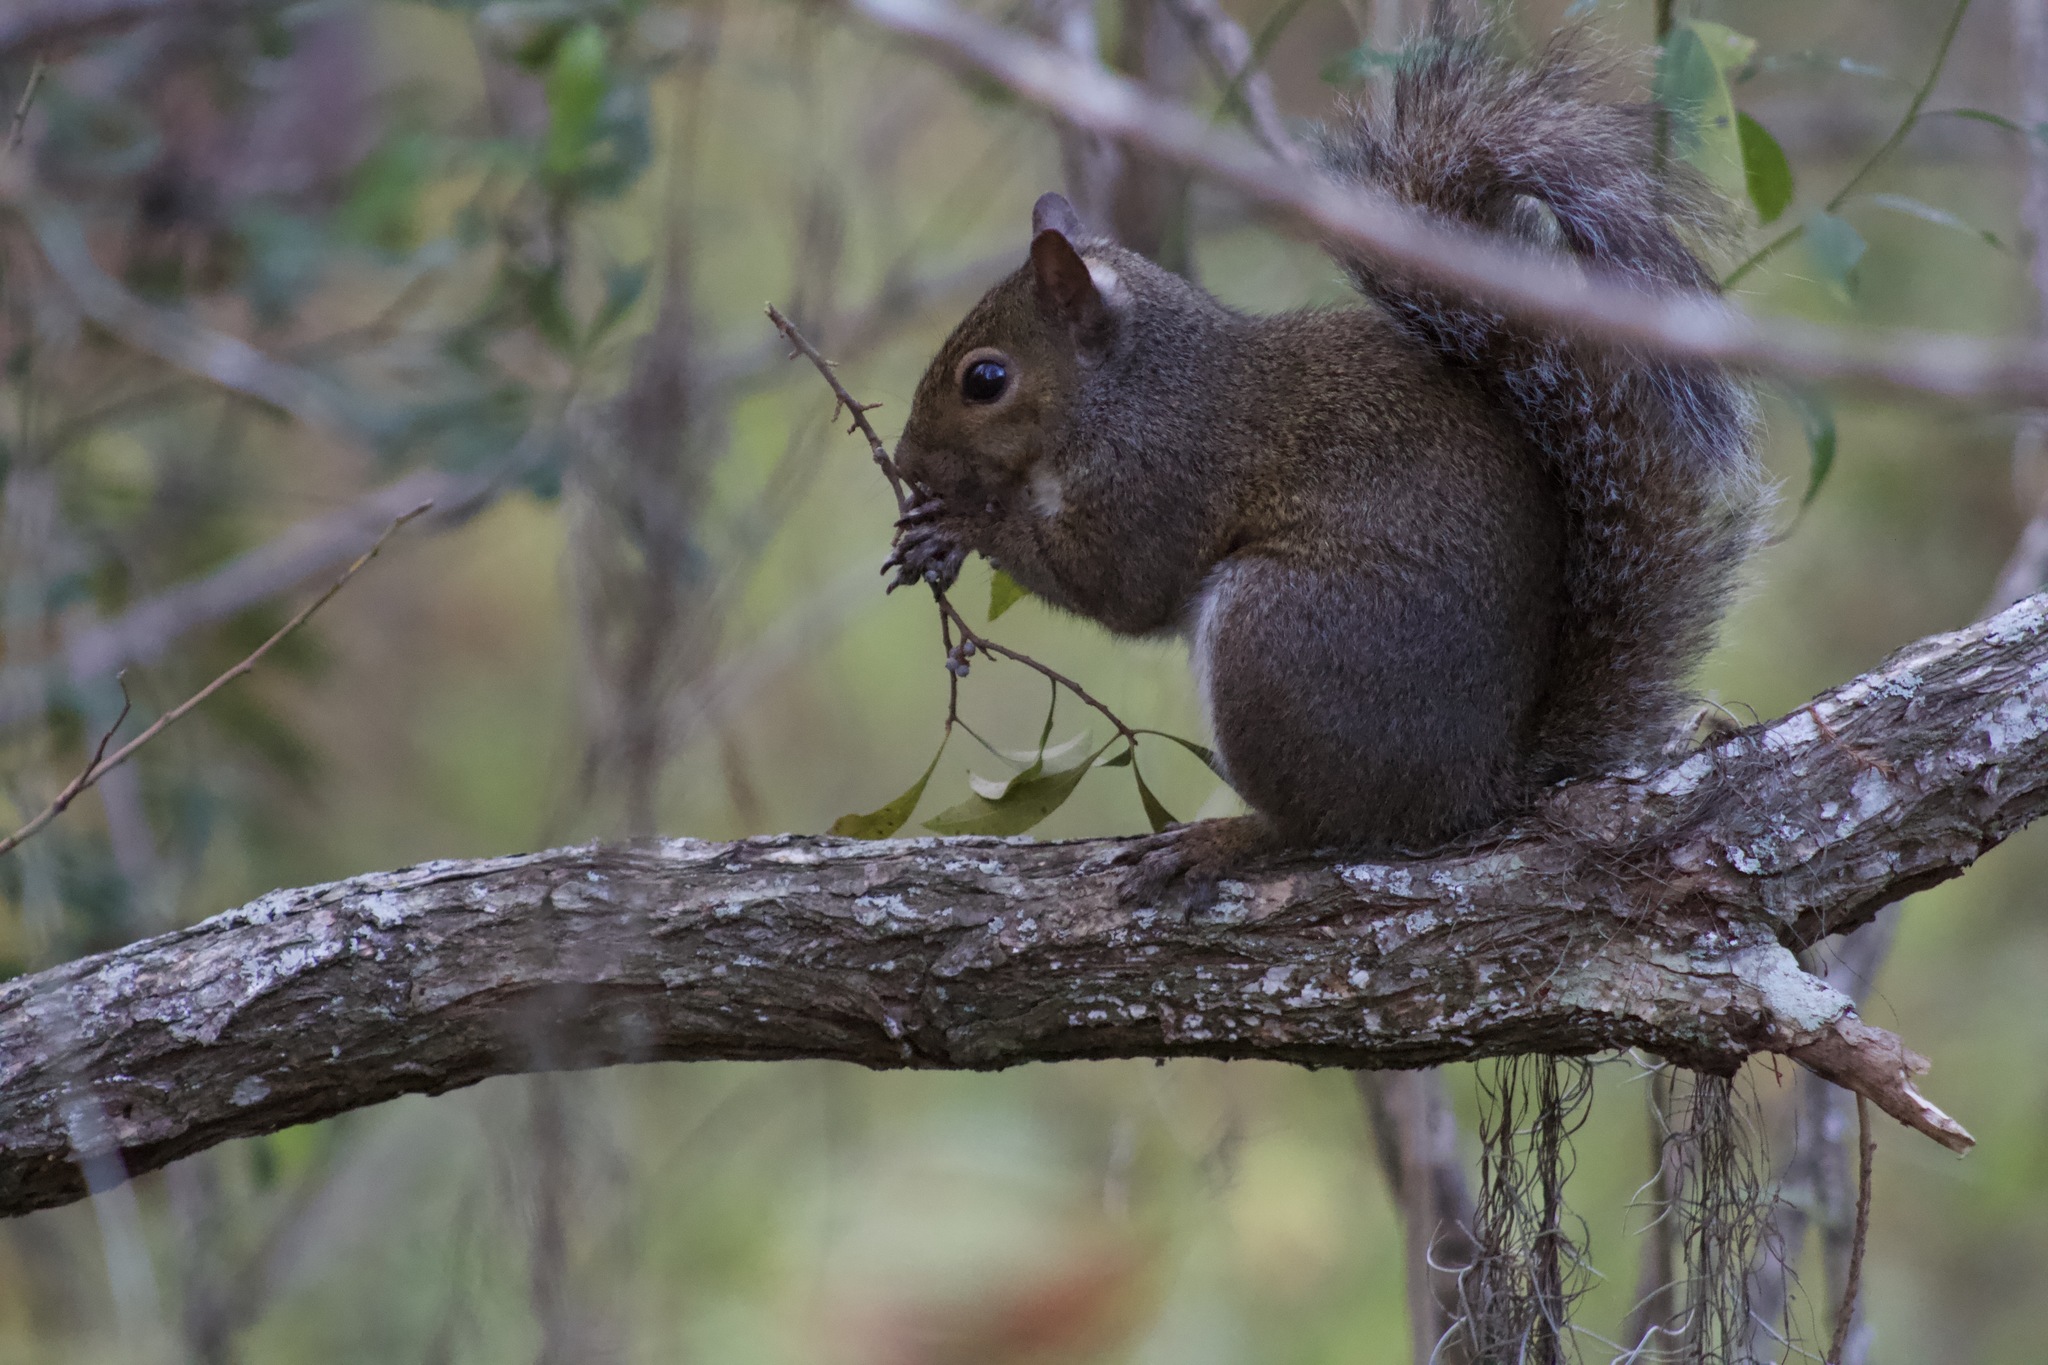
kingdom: Animalia
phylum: Chordata
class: Mammalia
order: Rodentia
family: Sciuridae
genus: Sciurus
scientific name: Sciurus carolinensis
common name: Eastern gray squirrel
